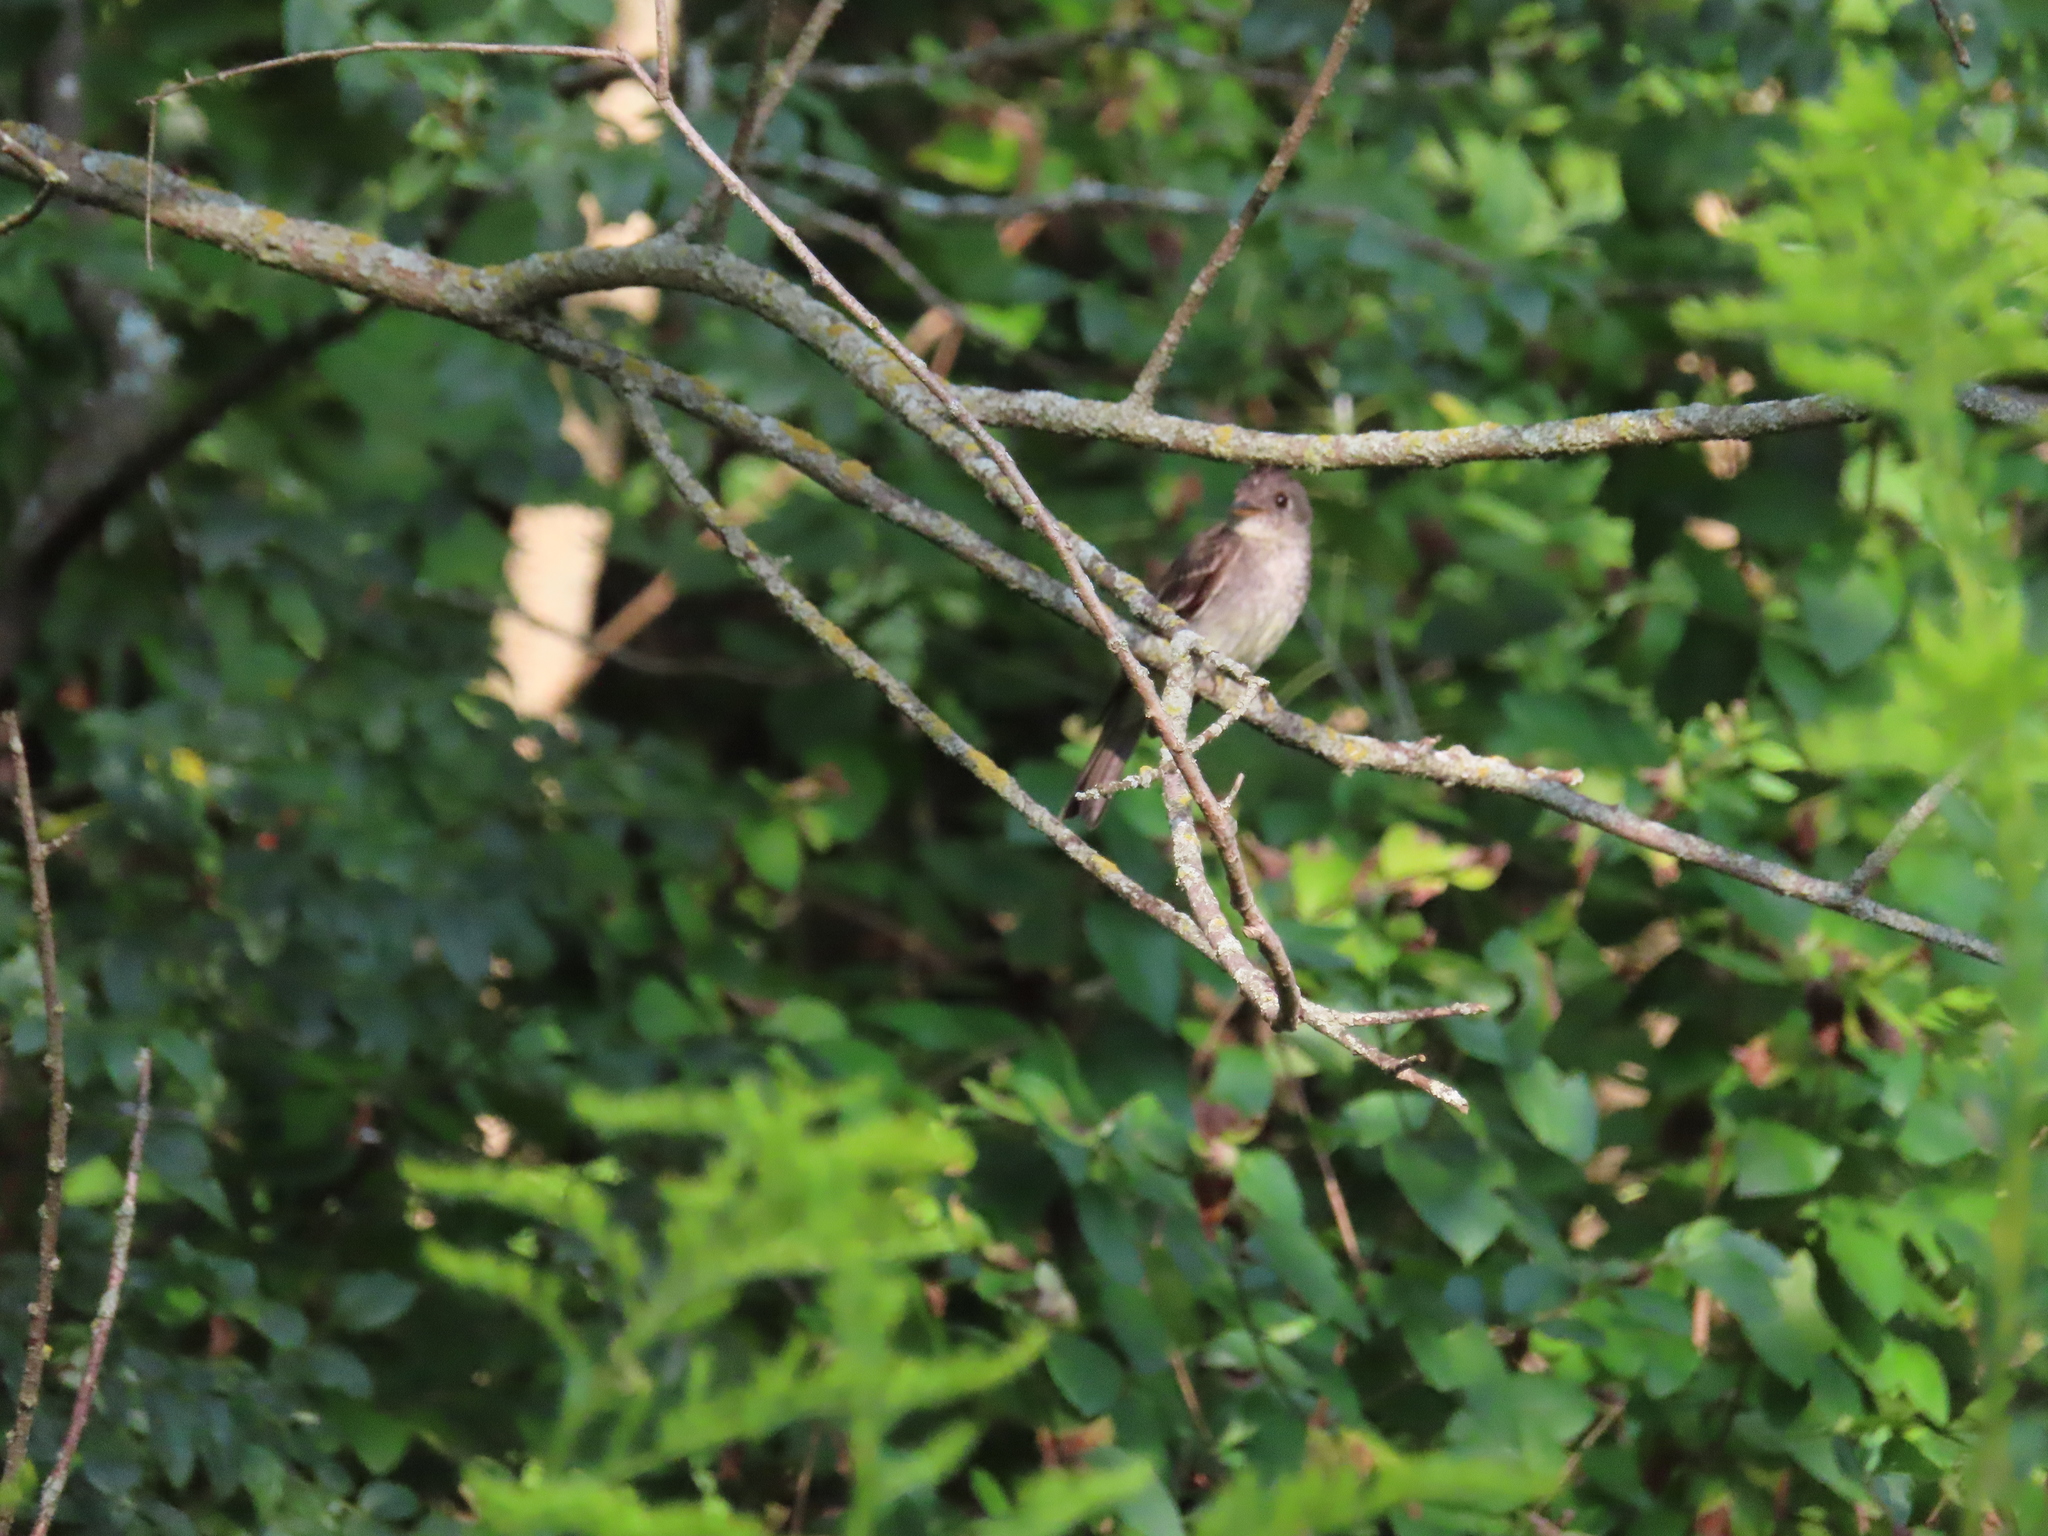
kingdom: Animalia
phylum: Chordata
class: Aves
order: Passeriformes
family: Tyrannidae
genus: Contopus
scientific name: Contopus virens
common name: Eastern wood-pewee
